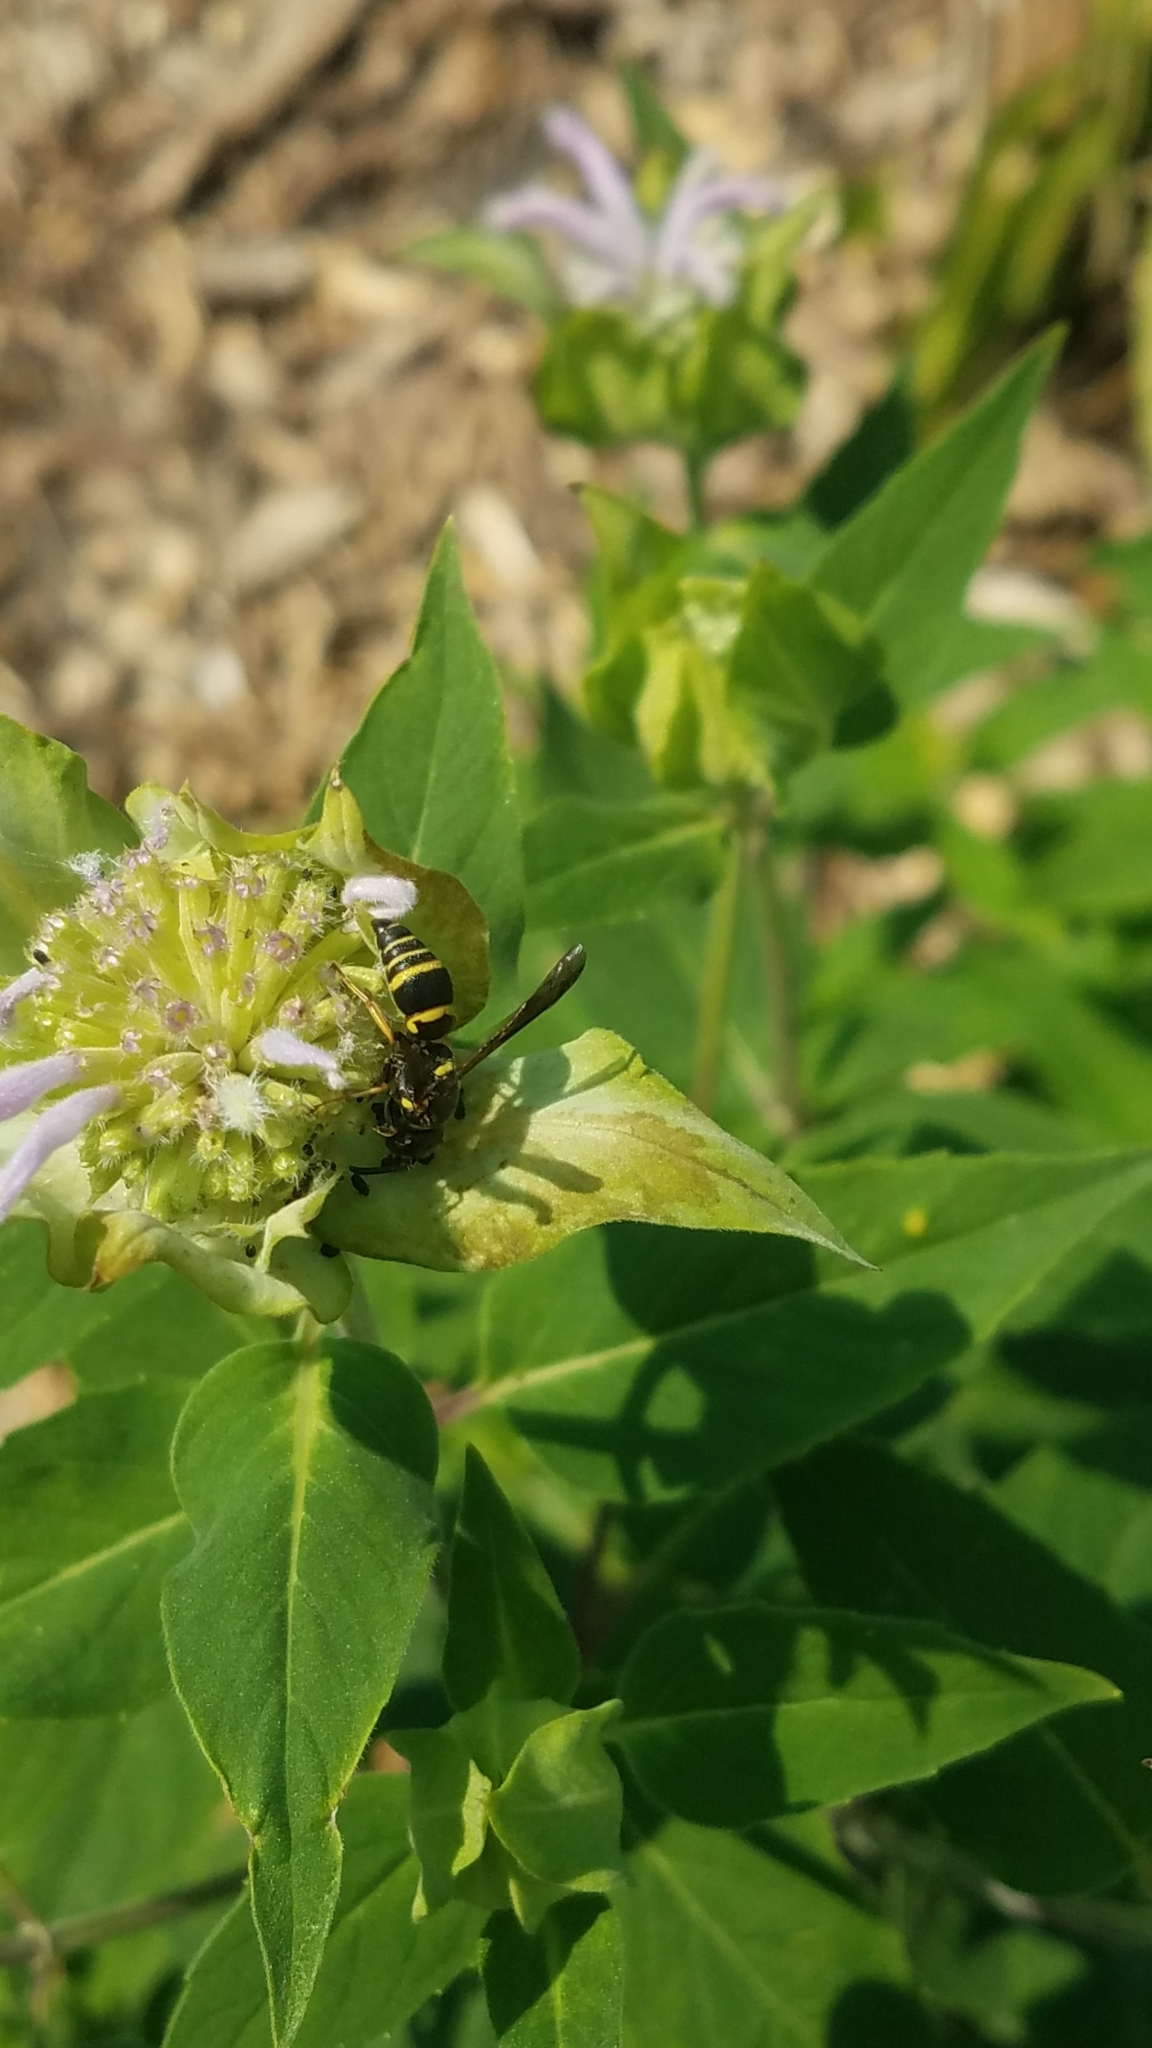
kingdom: Animalia
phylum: Arthropoda
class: Insecta
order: Hymenoptera
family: Eumenidae
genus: Euodynerus
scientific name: Euodynerus foraminatus
